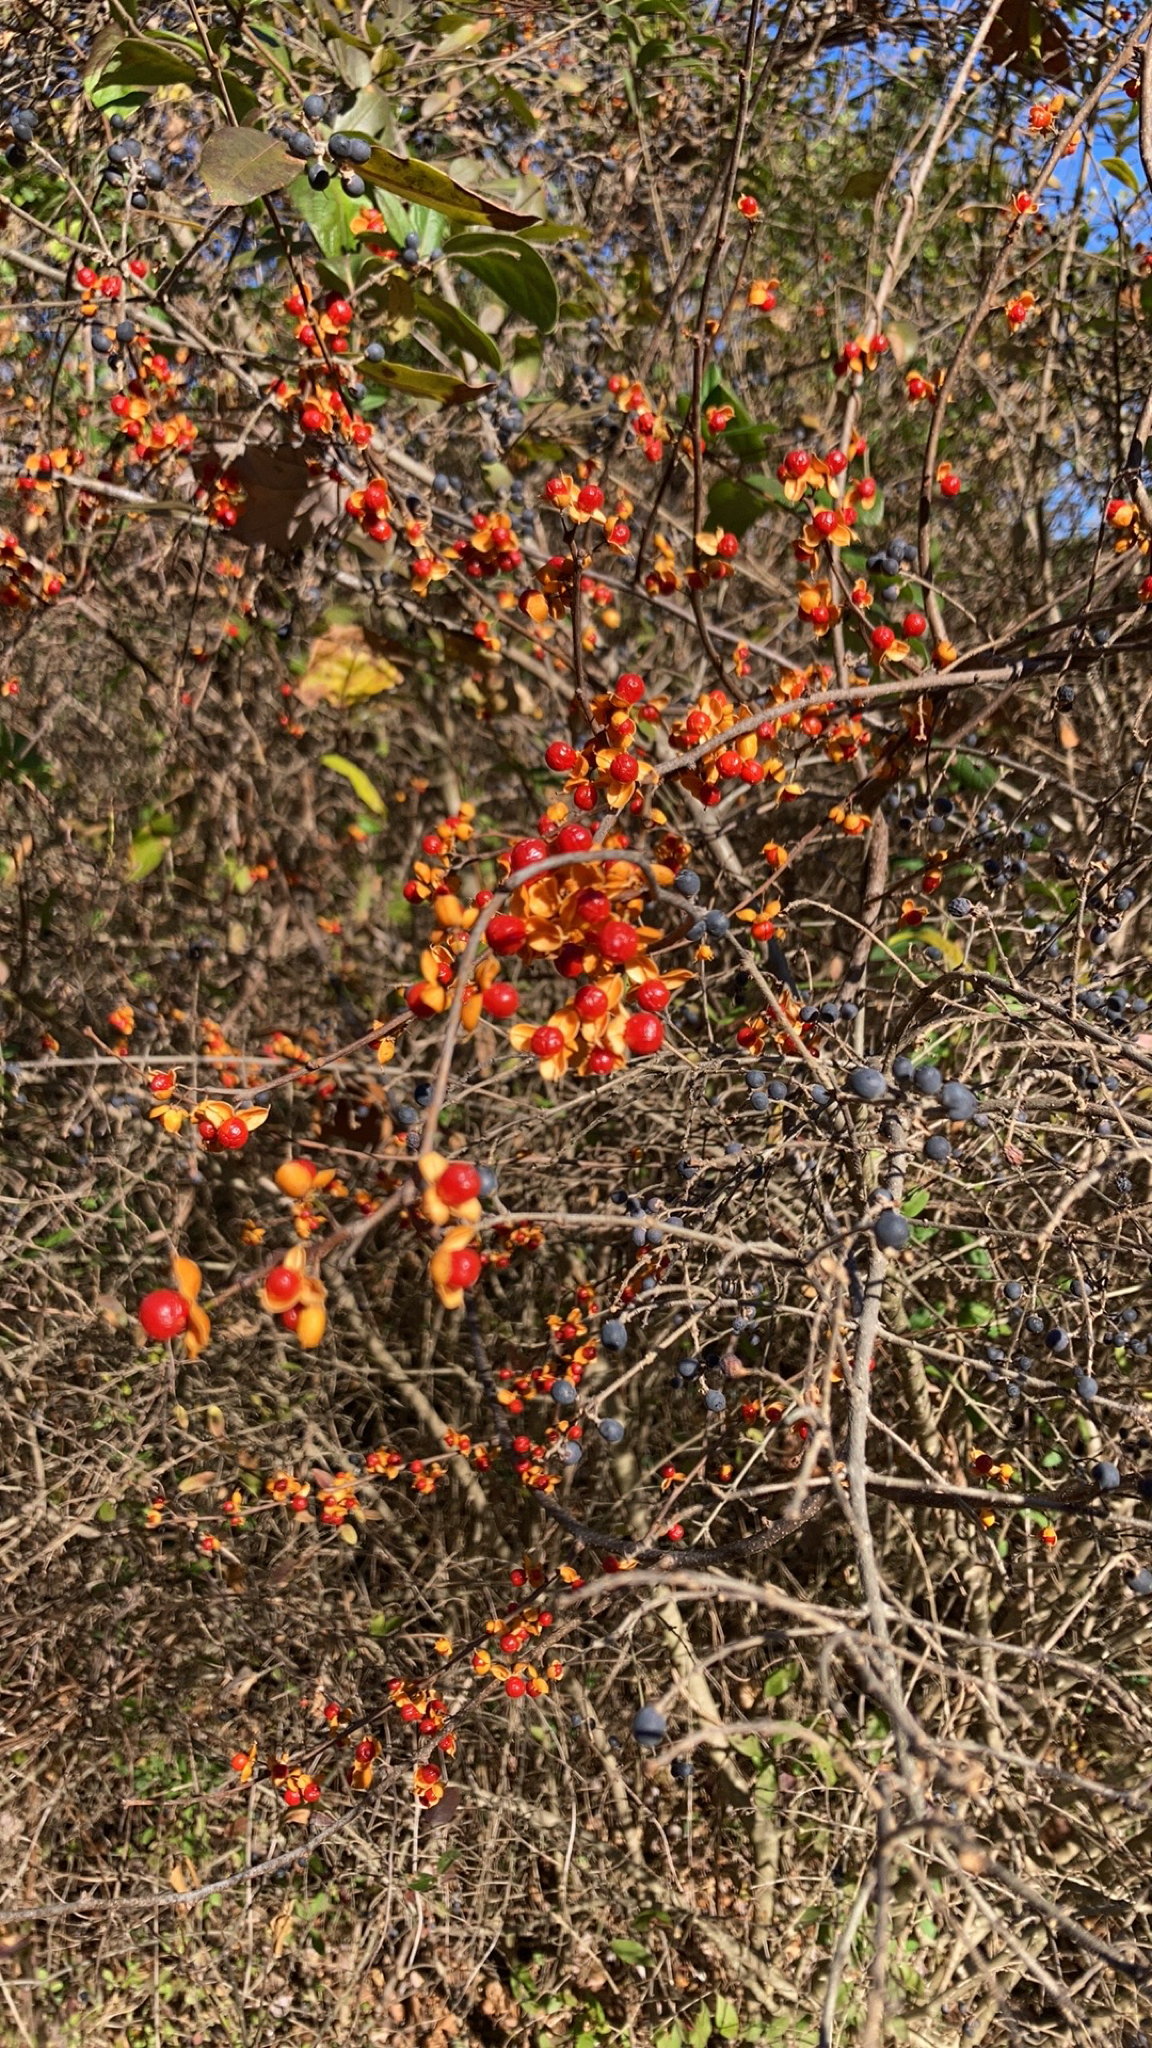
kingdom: Plantae
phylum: Tracheophyta
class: Magnoliopsida
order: Celastrales
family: Celastraceae
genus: Celastrus
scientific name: Celastrus orbiculatus
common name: Oriental bittersweet
